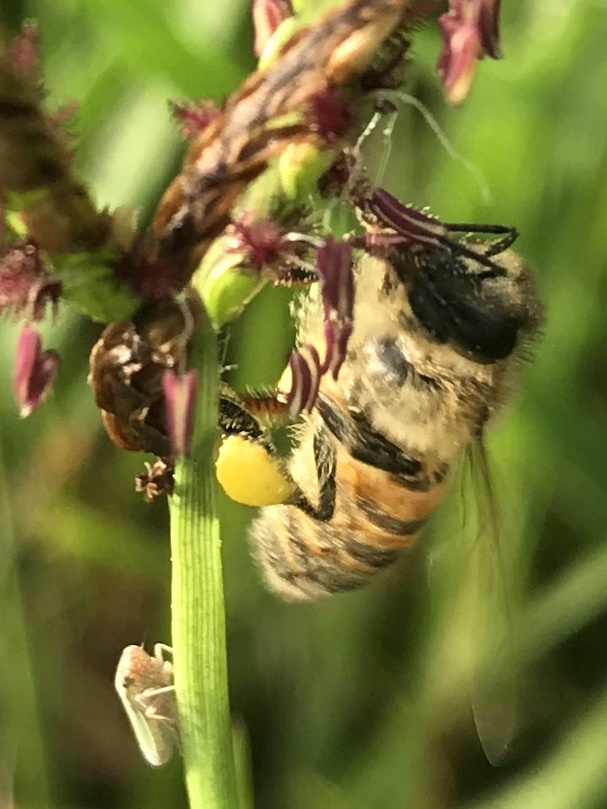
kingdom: Animalia
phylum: Arthropoda
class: Insecta
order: Hymenoptera
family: Apidae
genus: Apis
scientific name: Apis mellifera
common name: Honey bee
